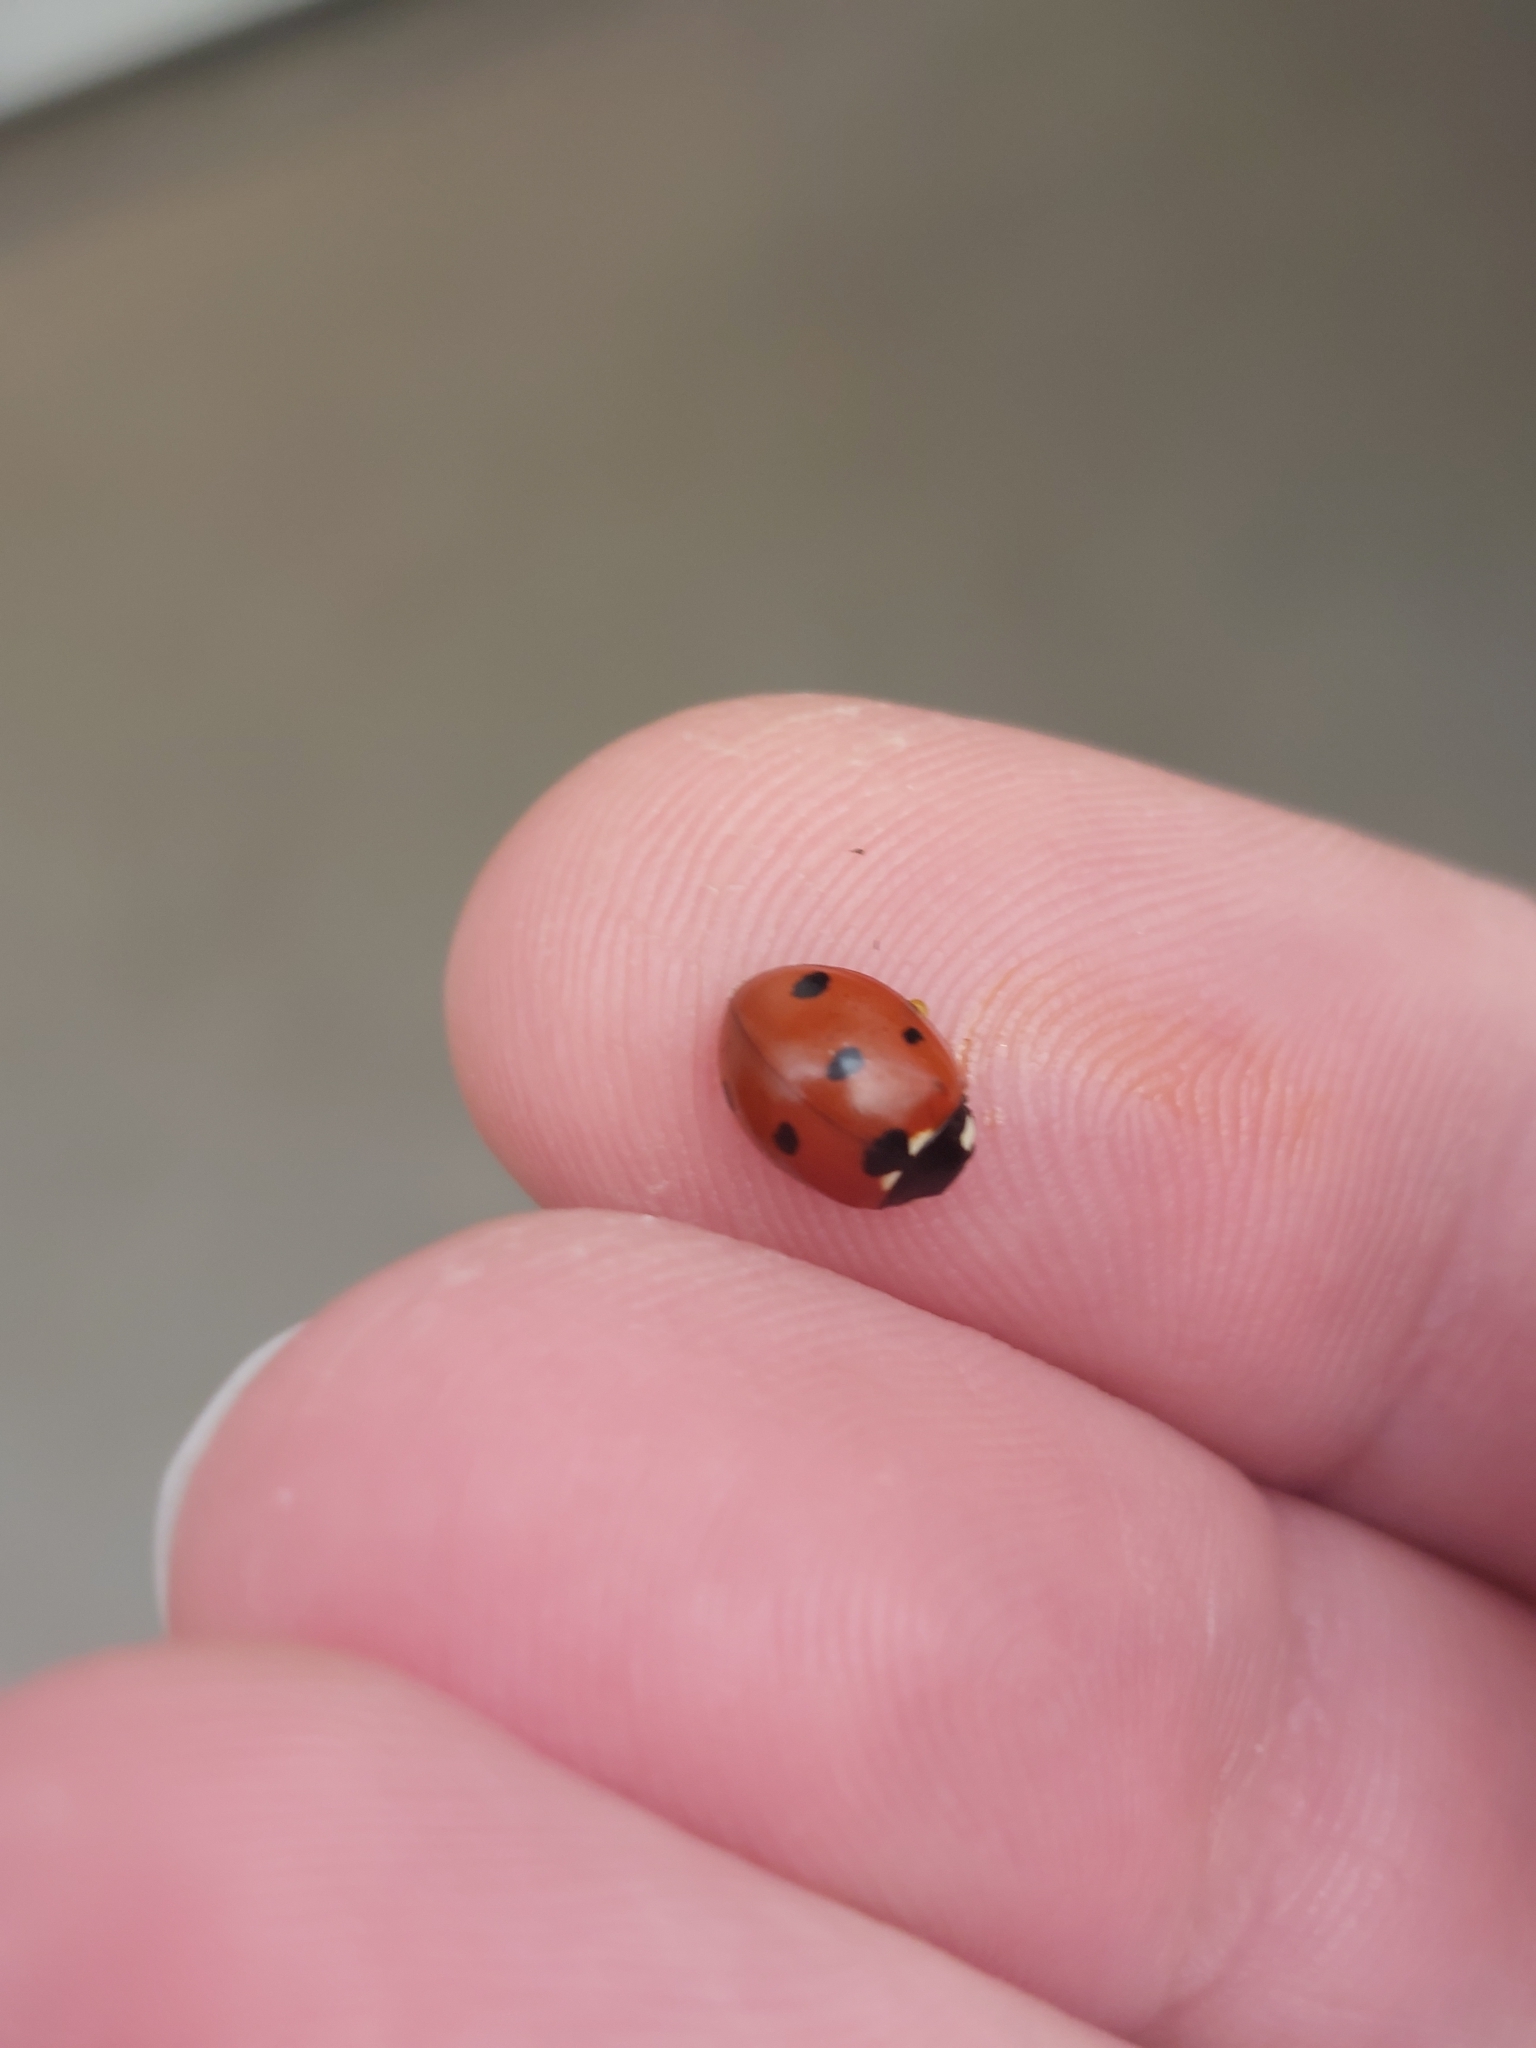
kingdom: Animalia
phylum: Arthropoda
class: Insecta
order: Coleoptera
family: Coccinellidae
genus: Coccinella
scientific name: Coccinella septempunctata
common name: Sevenspotted lady beetle
